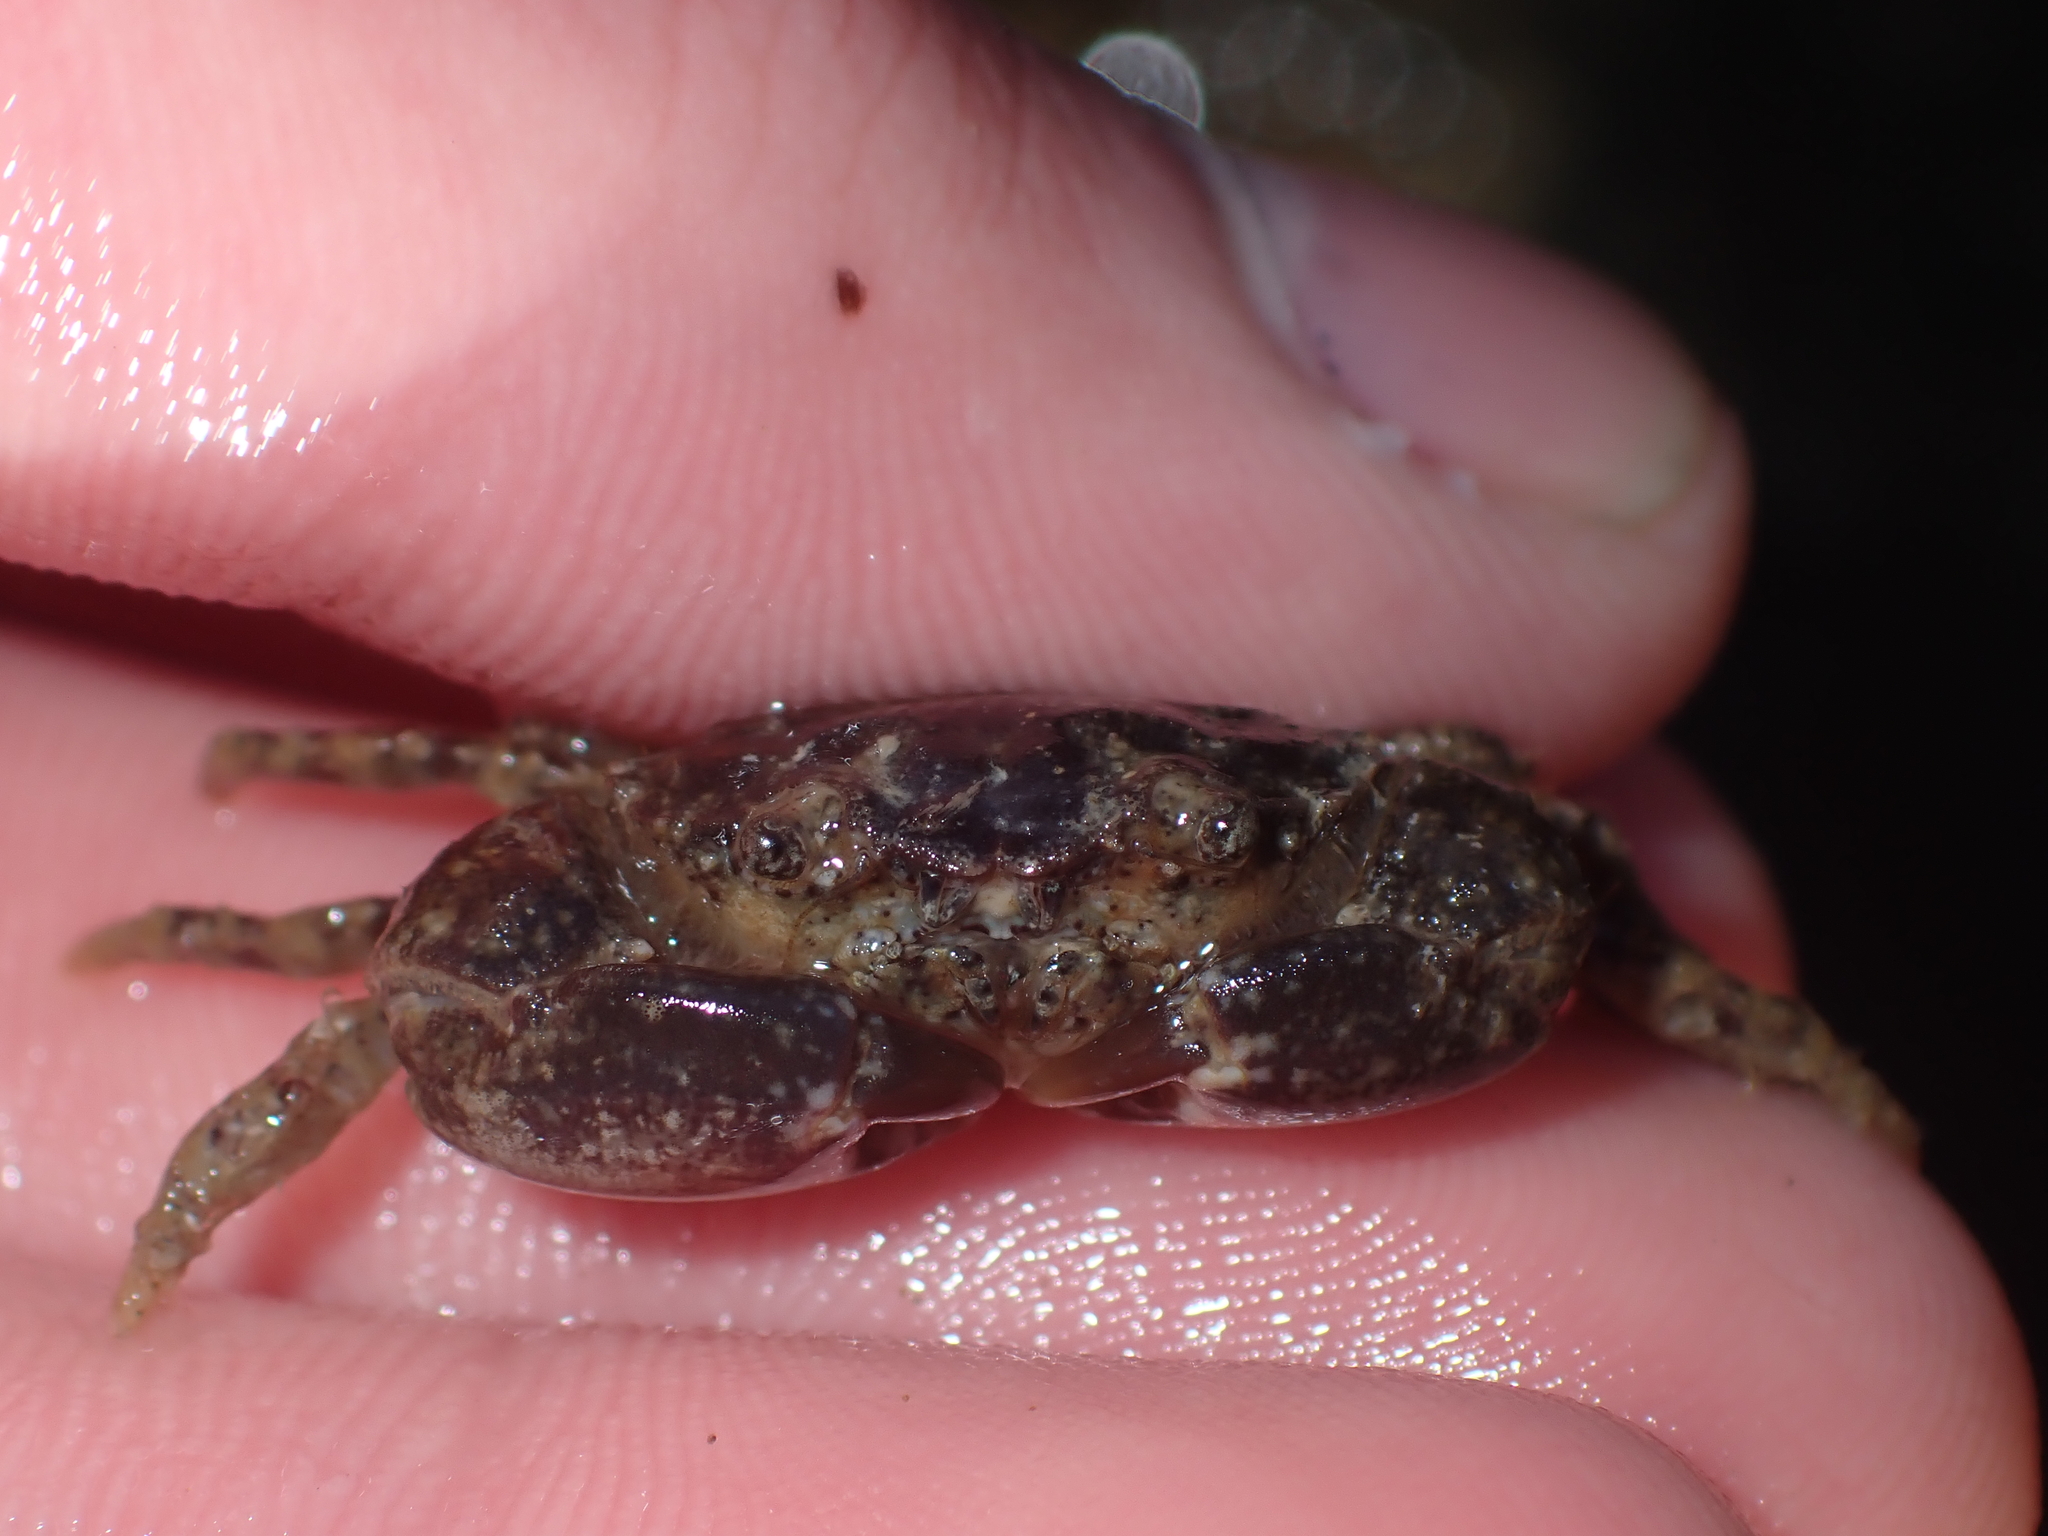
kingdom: Animalia
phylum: Arthropoda
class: Malacostraca
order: Decapoda
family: Pilumnidae
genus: Pilumnopeus
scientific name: Pilumnopeus serratifrons
